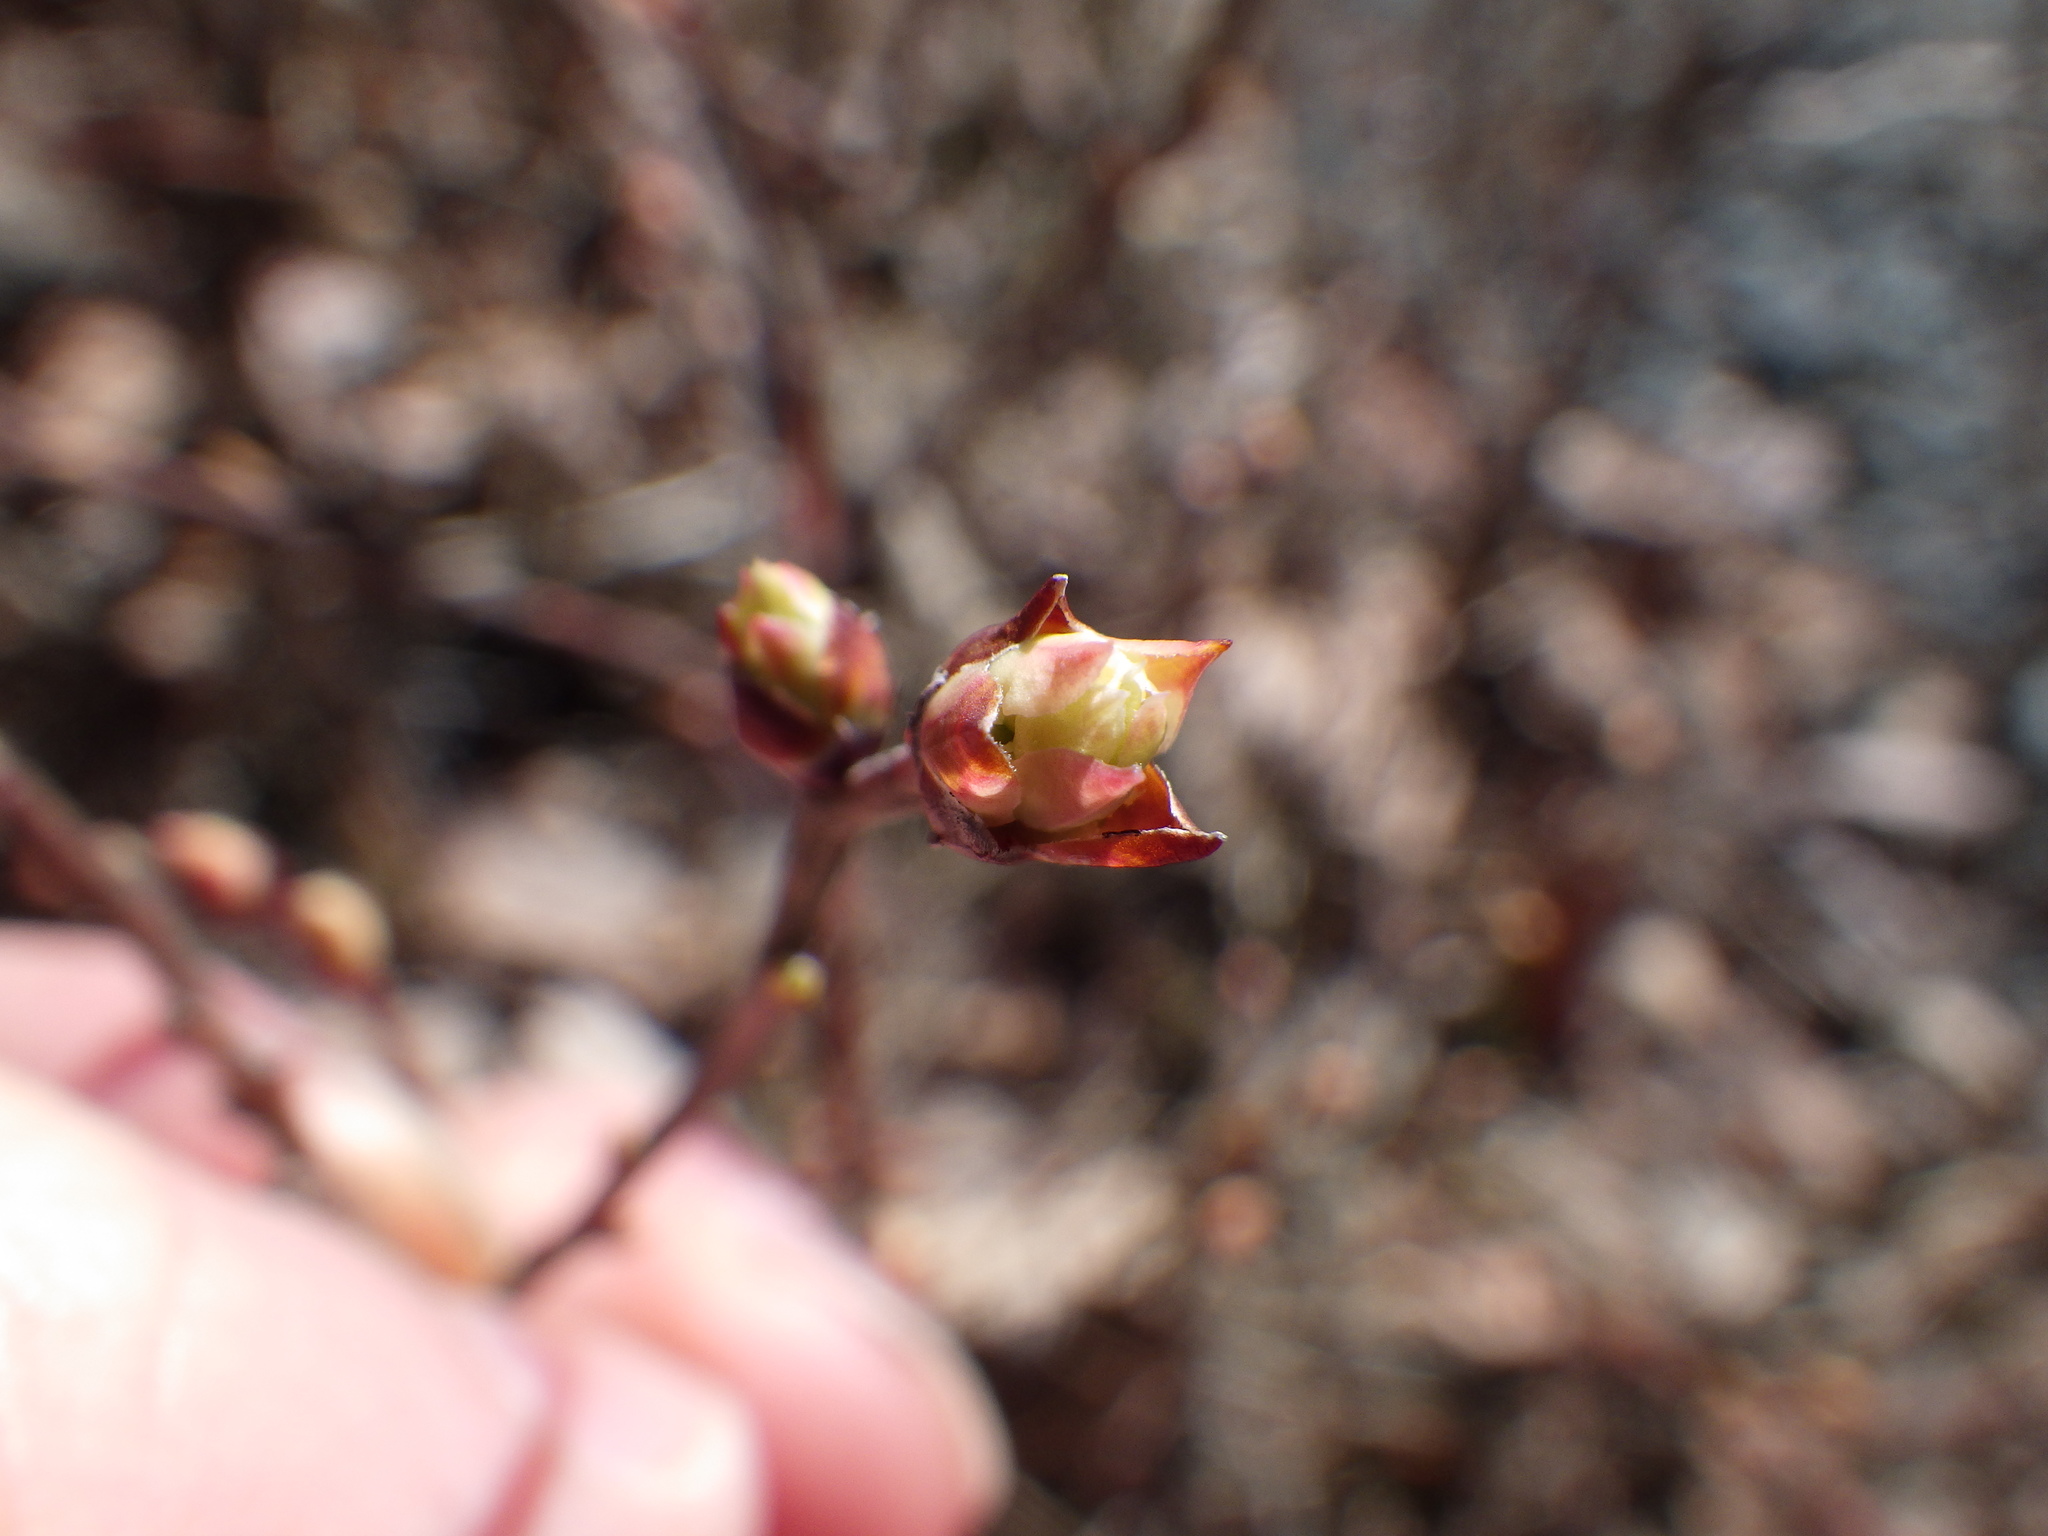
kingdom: Plantae
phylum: Tracheophyta
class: Magnoliopsida
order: Ericales
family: Ericaceae
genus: Gaylussacia
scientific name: Gaylussacia baccata
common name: Black huckleberry
